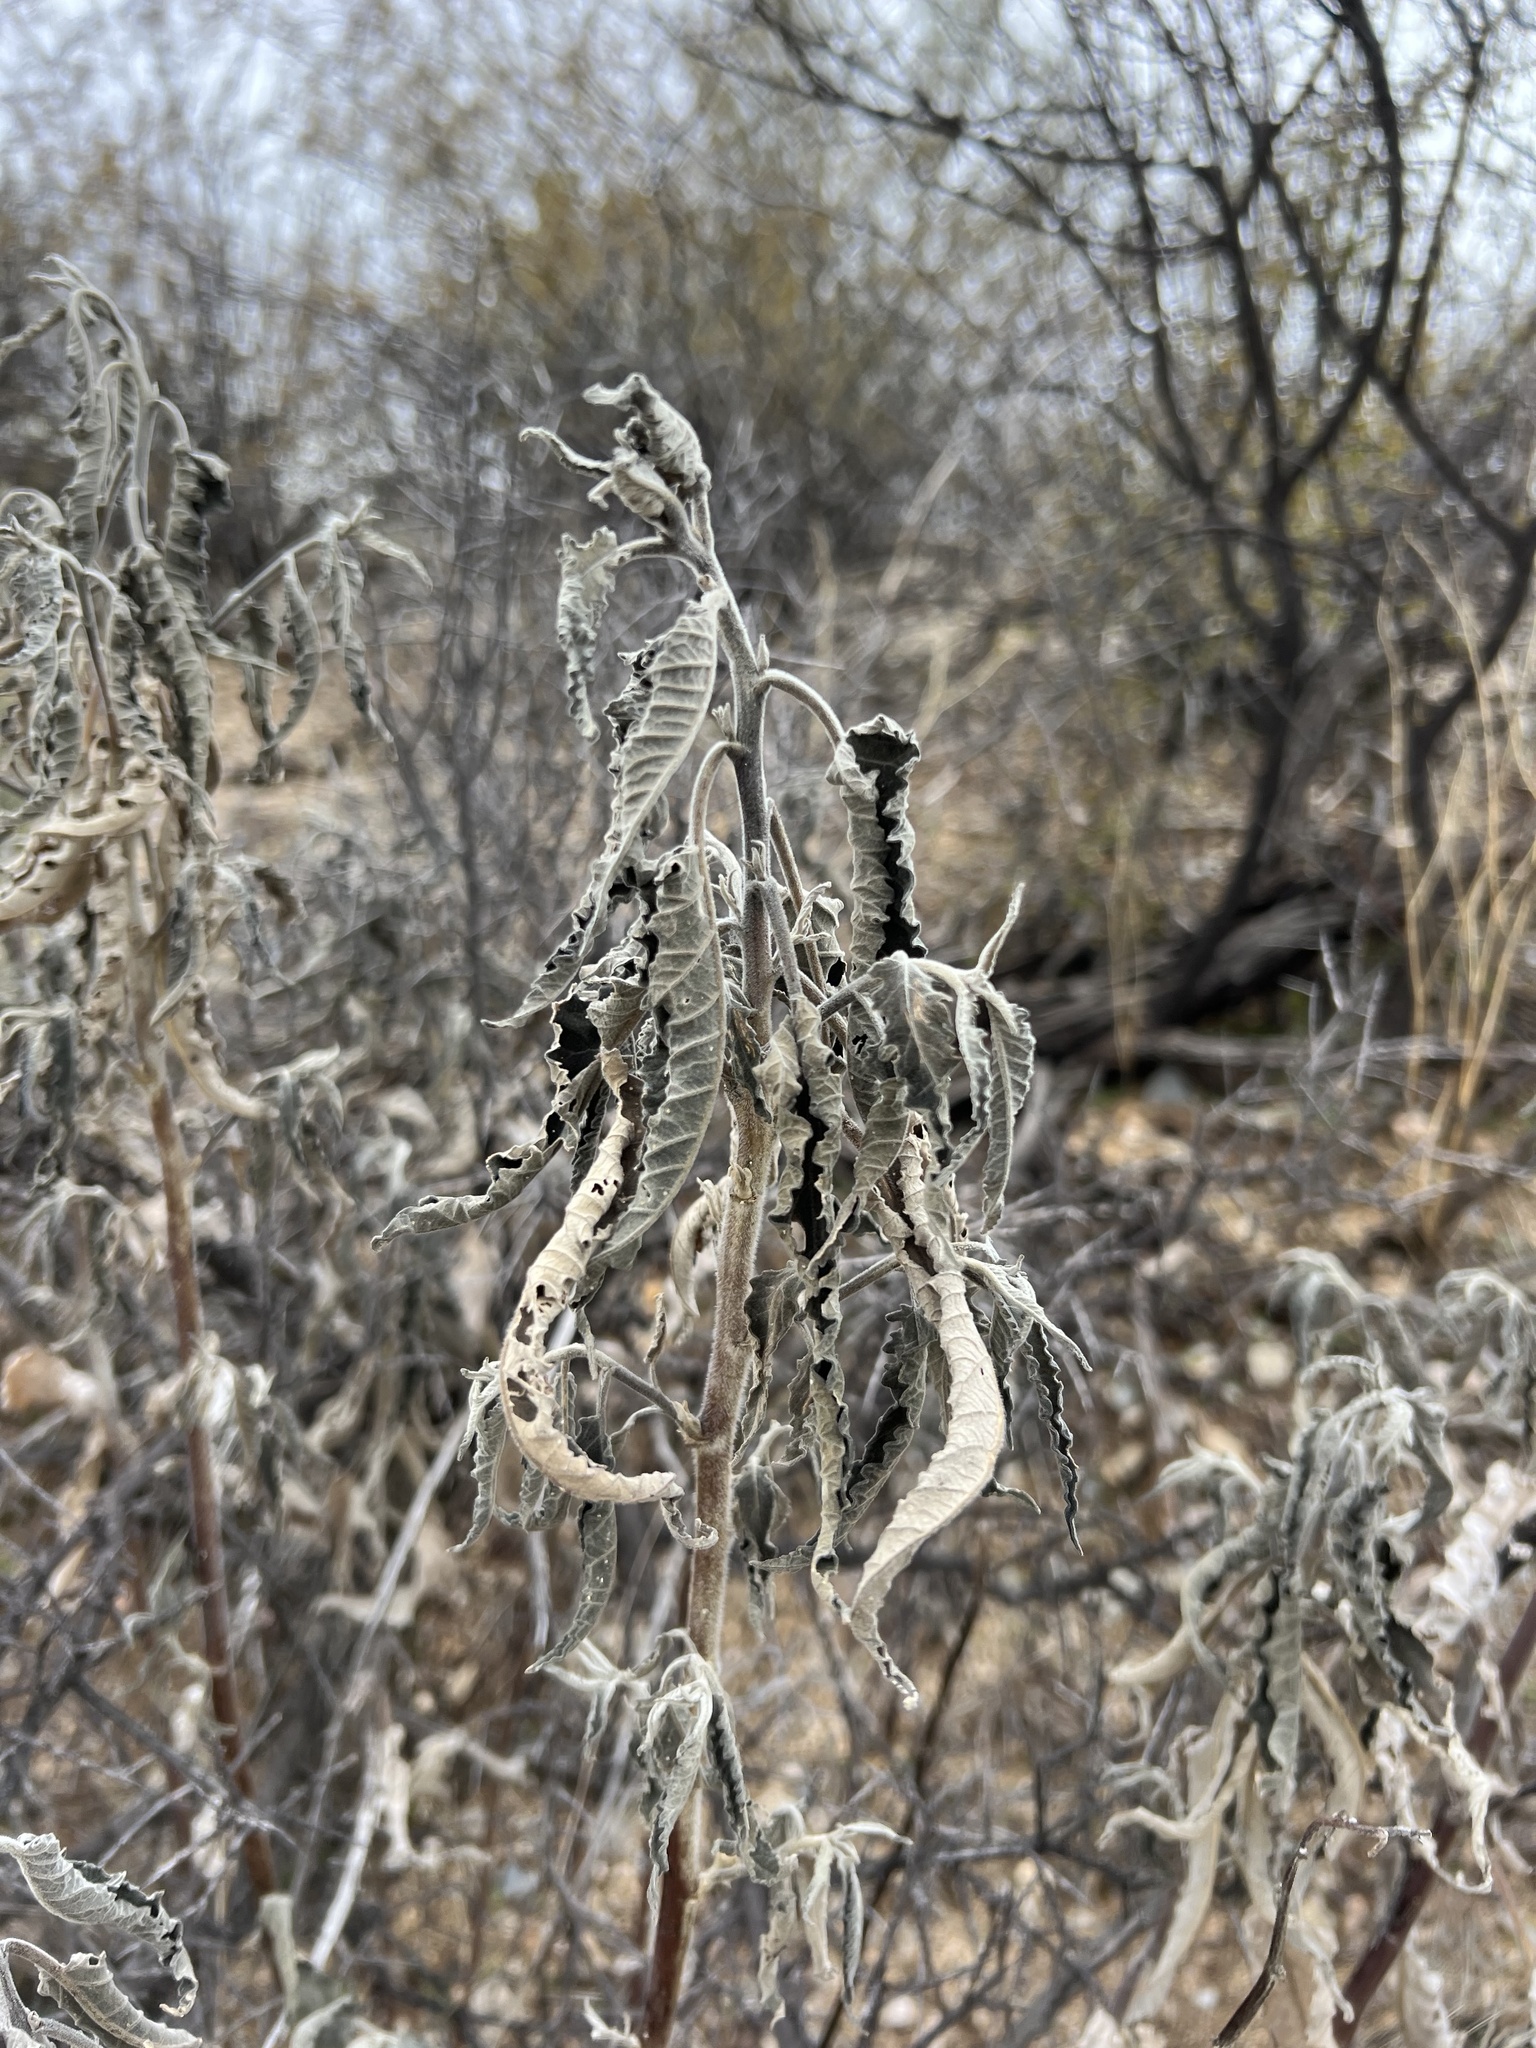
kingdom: Plantae
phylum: Tracheophyta
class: Magnoliopsida
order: Asterales
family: Asteraceae
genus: Ambrosia
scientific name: Ambrosia ambrosioides
